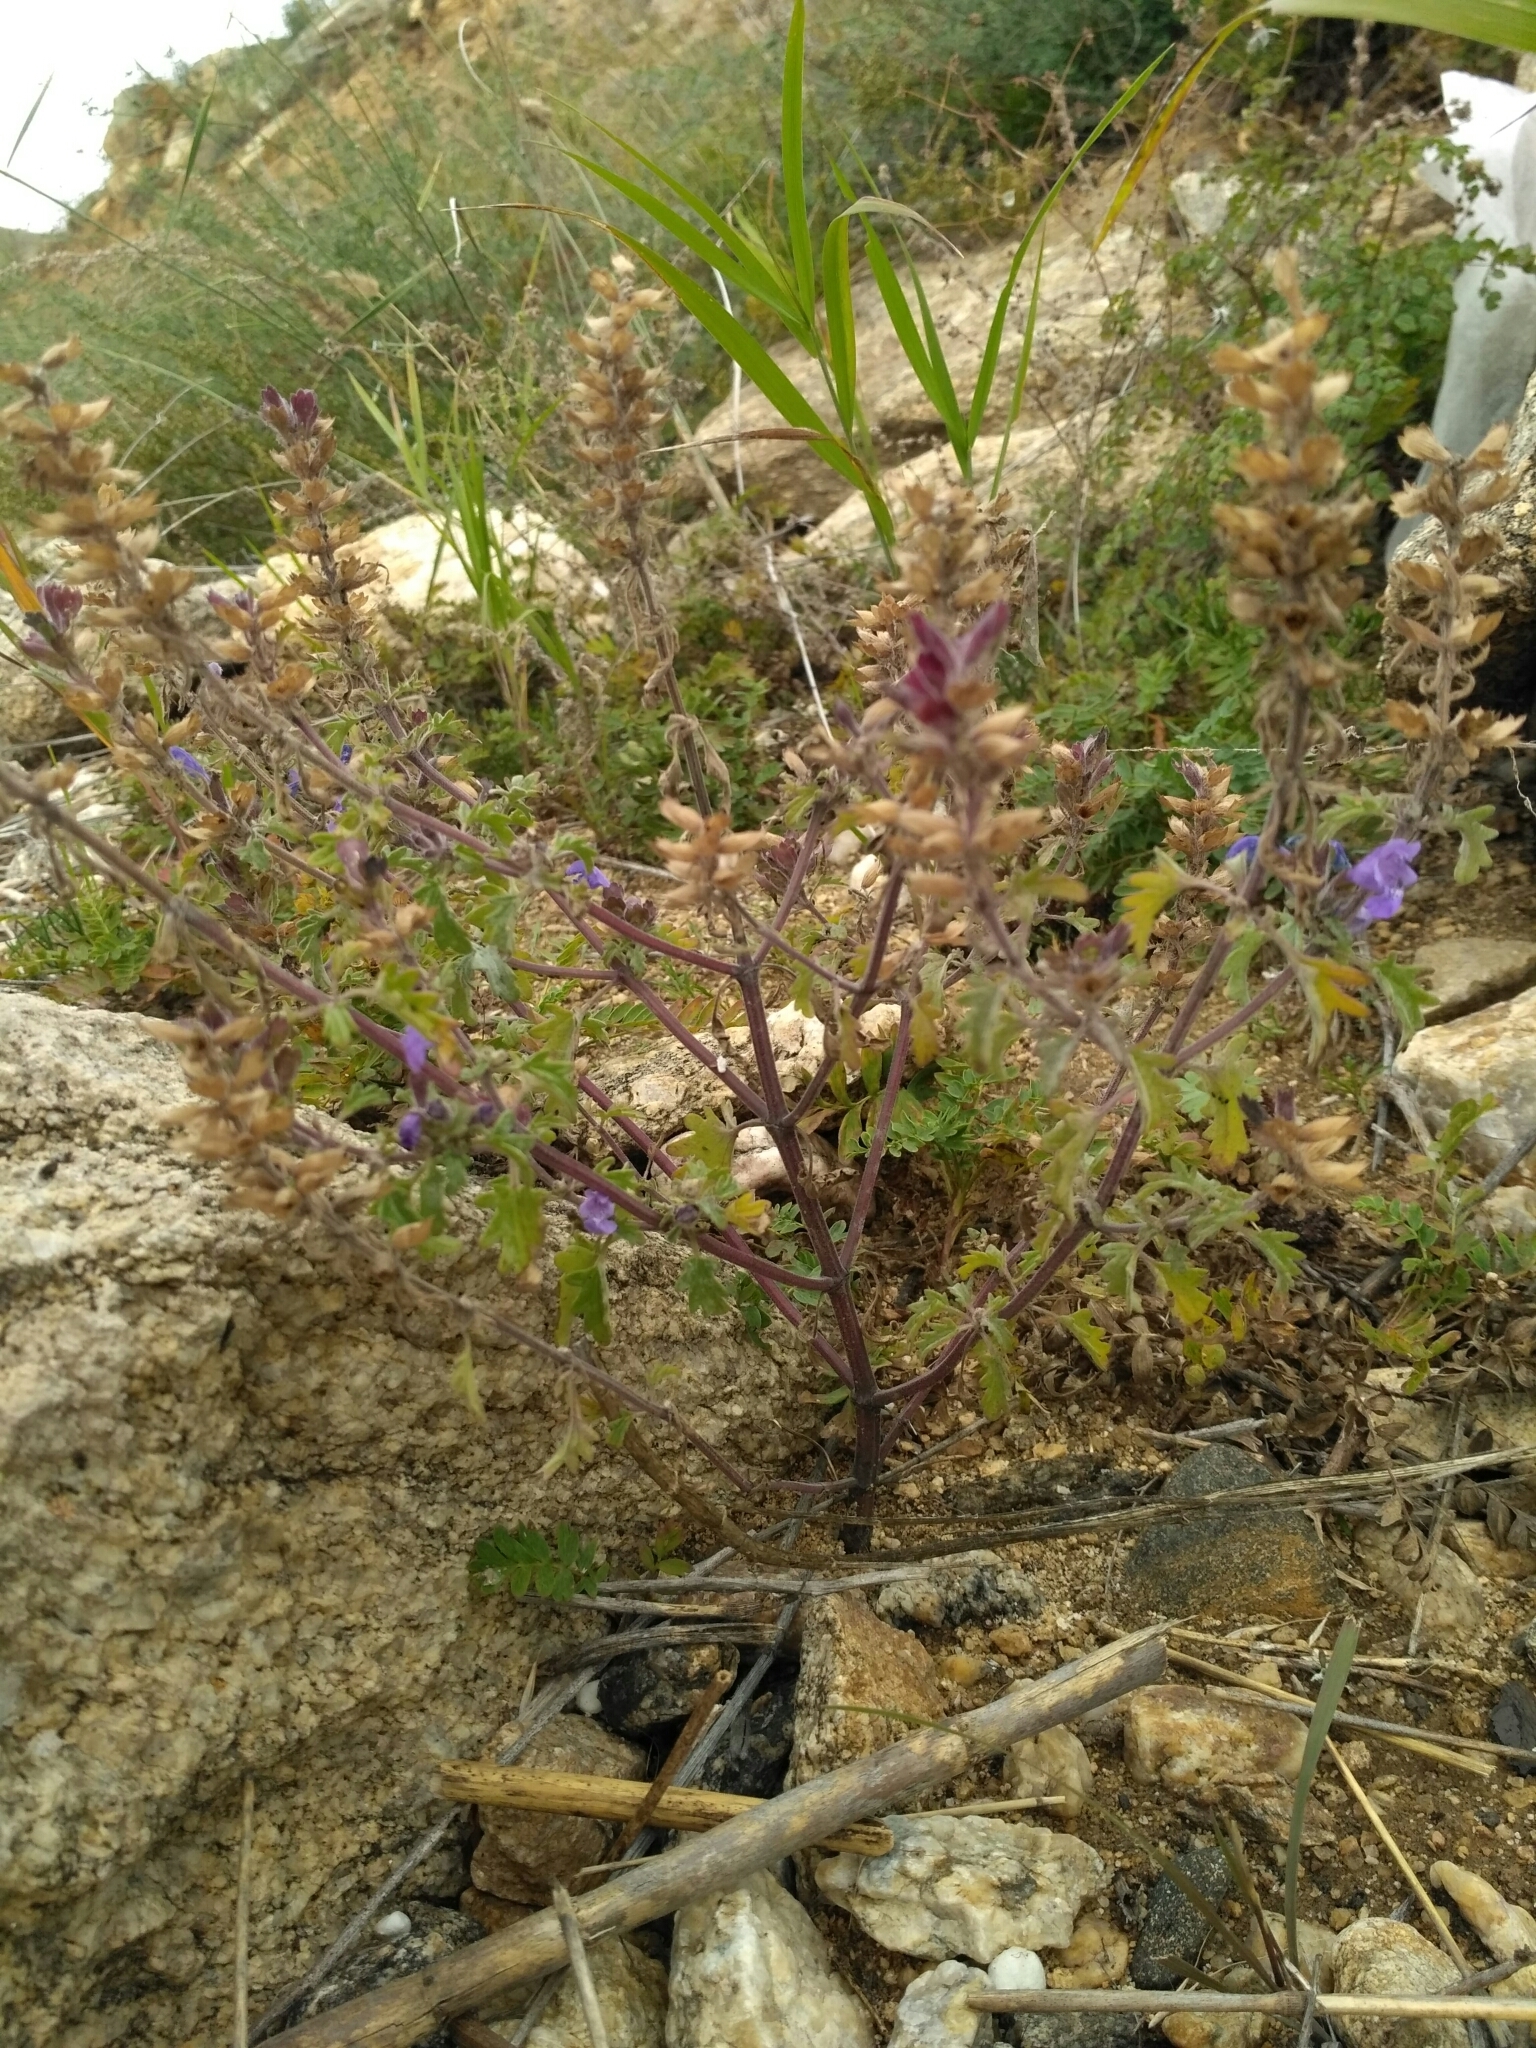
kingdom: Plantae
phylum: Tracheophyta
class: Magnoliopsida
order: Lamiales
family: Lamiaceae
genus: Dracocephalum
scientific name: Dracocephalum olchonense
